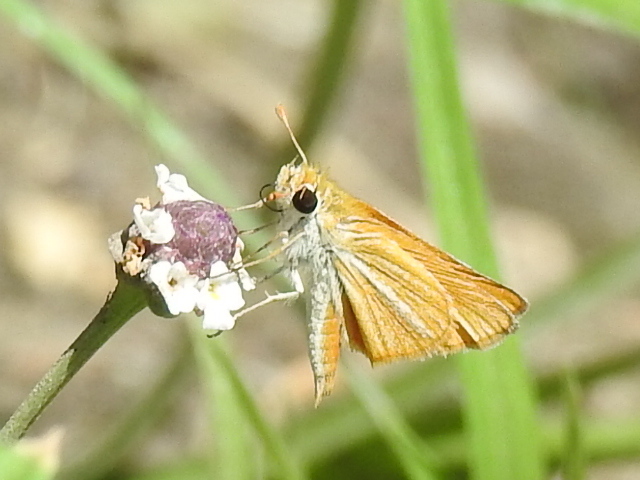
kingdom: Animalia
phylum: Arthropoda
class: Insecta
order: Lepidoptera
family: Hesperiidae
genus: Copaeodes
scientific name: Copaeodes minima
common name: Southern skipperling
